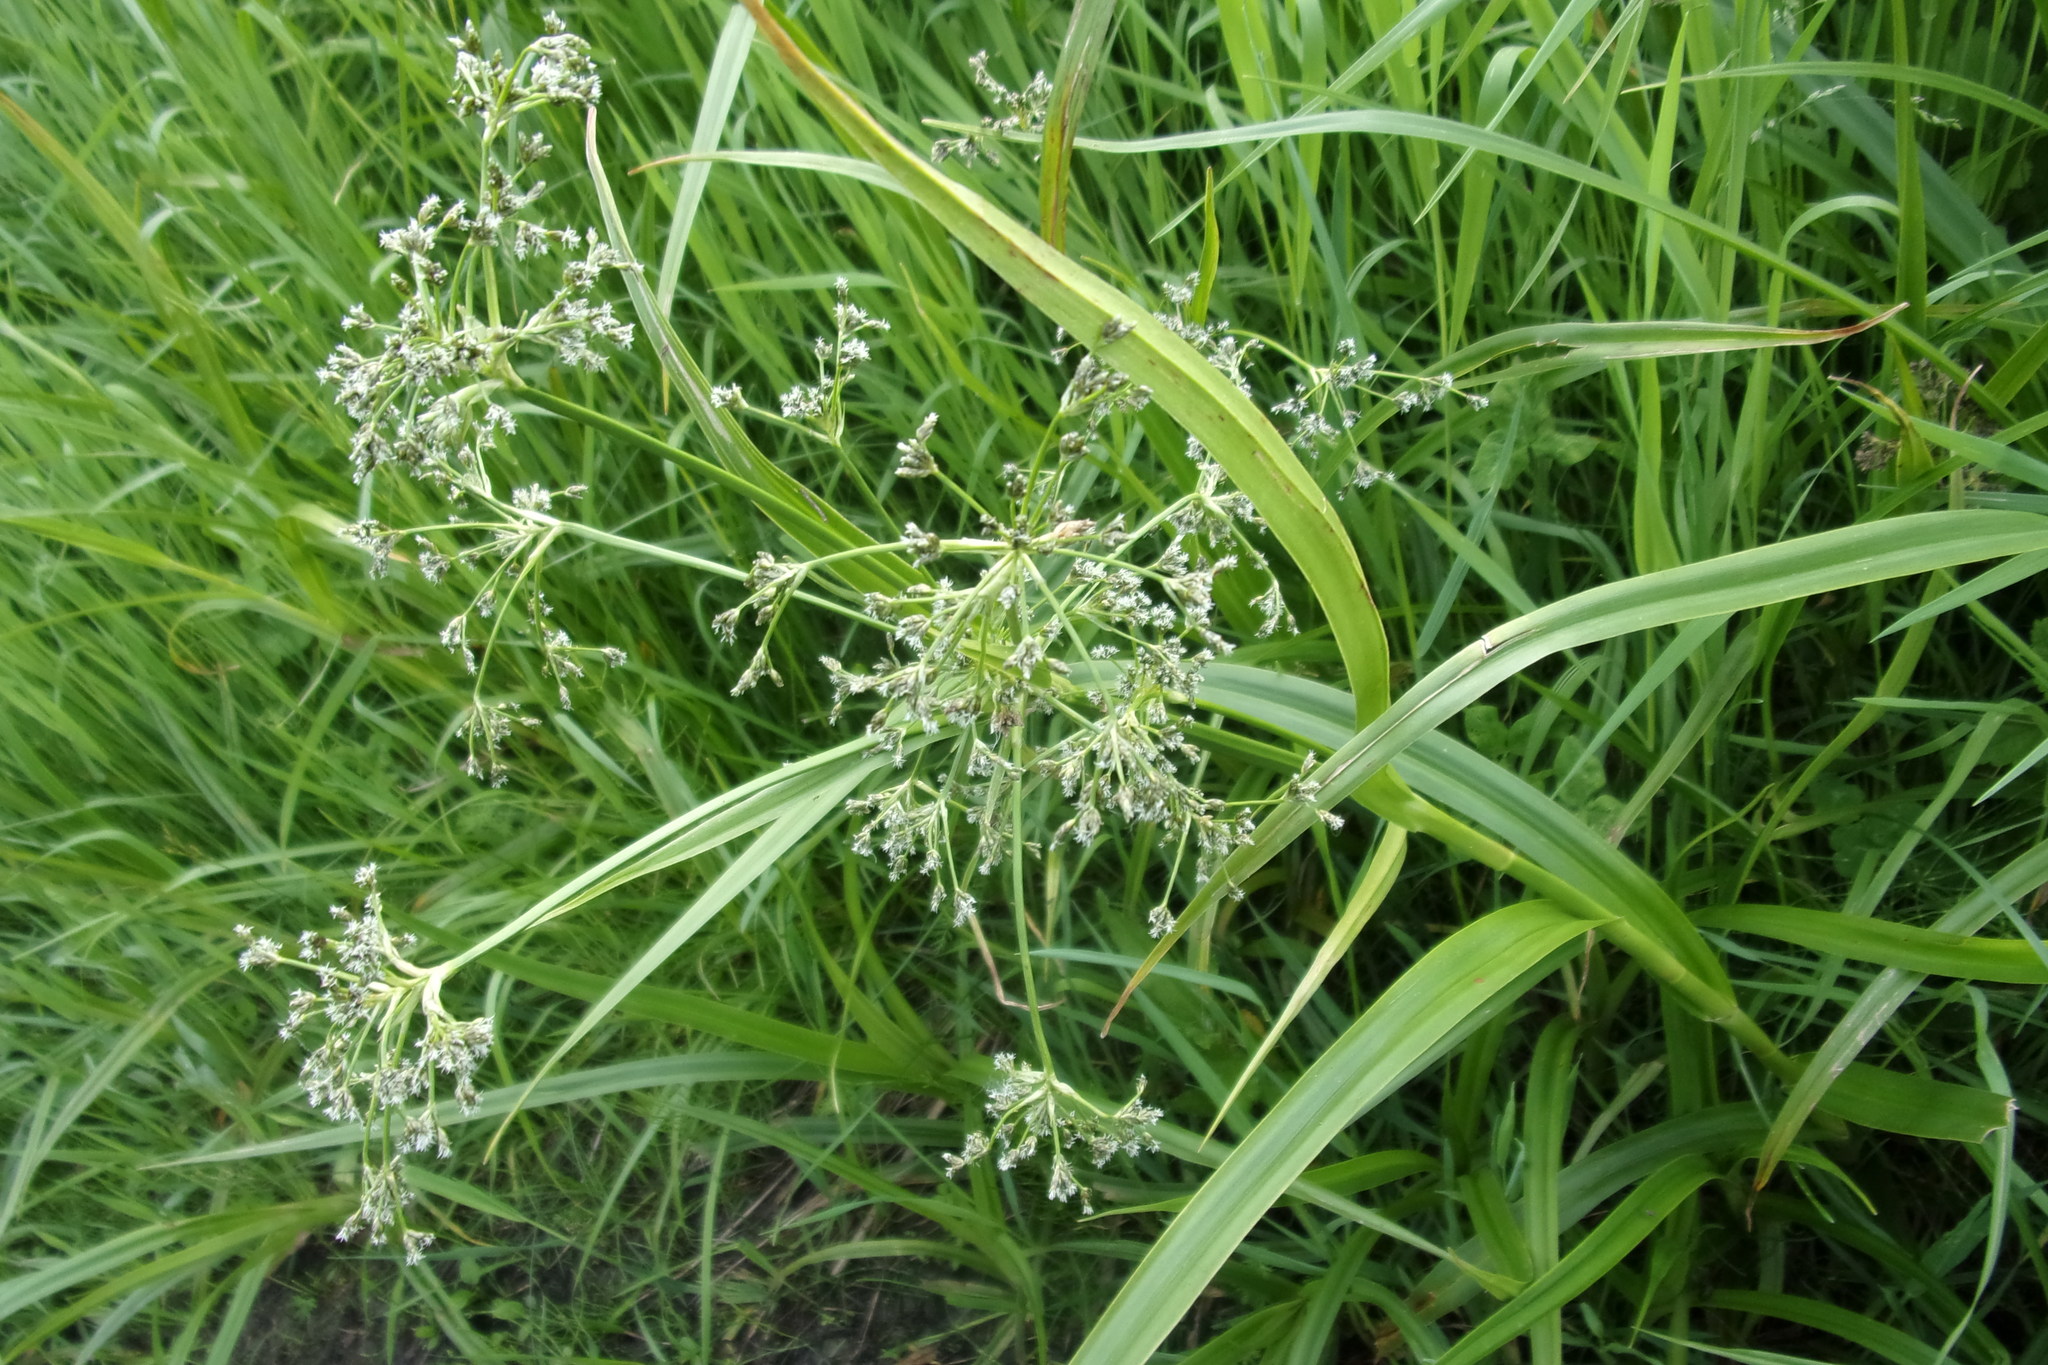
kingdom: Plantae
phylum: Tracheophyta
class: Liliopsida
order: Poales
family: Cyperaceae
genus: Scirpus
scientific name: Scirpus sylvaticus
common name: Wood club-rush
